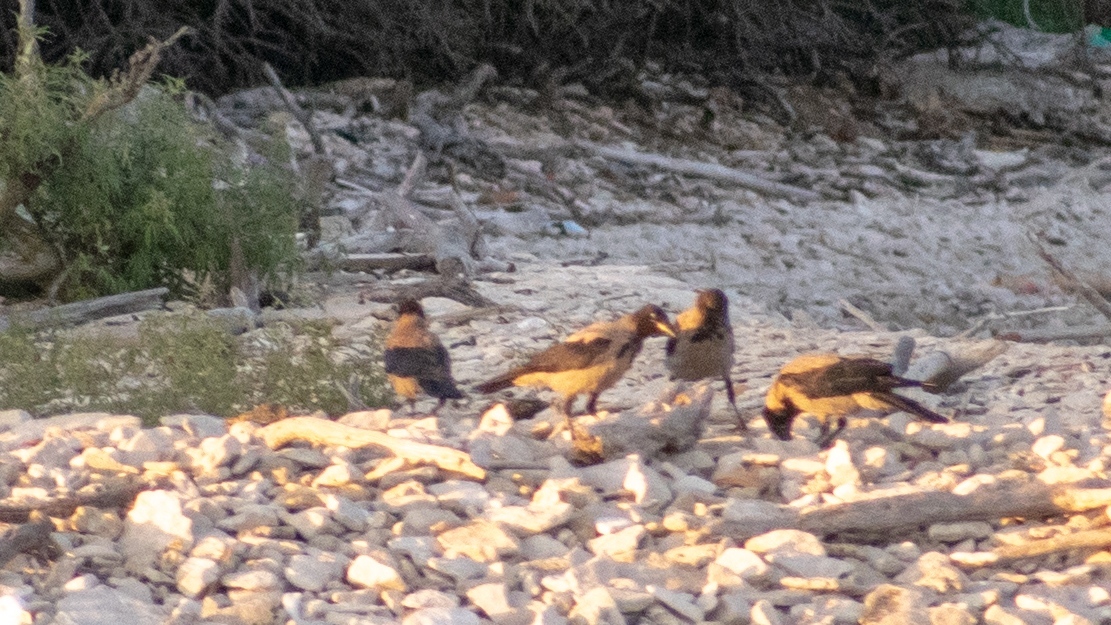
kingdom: Animalia
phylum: Chordata
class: Aves
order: Passeriformes
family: Corvidae
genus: Corvus
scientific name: Corvus cornix
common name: Hooded crow
